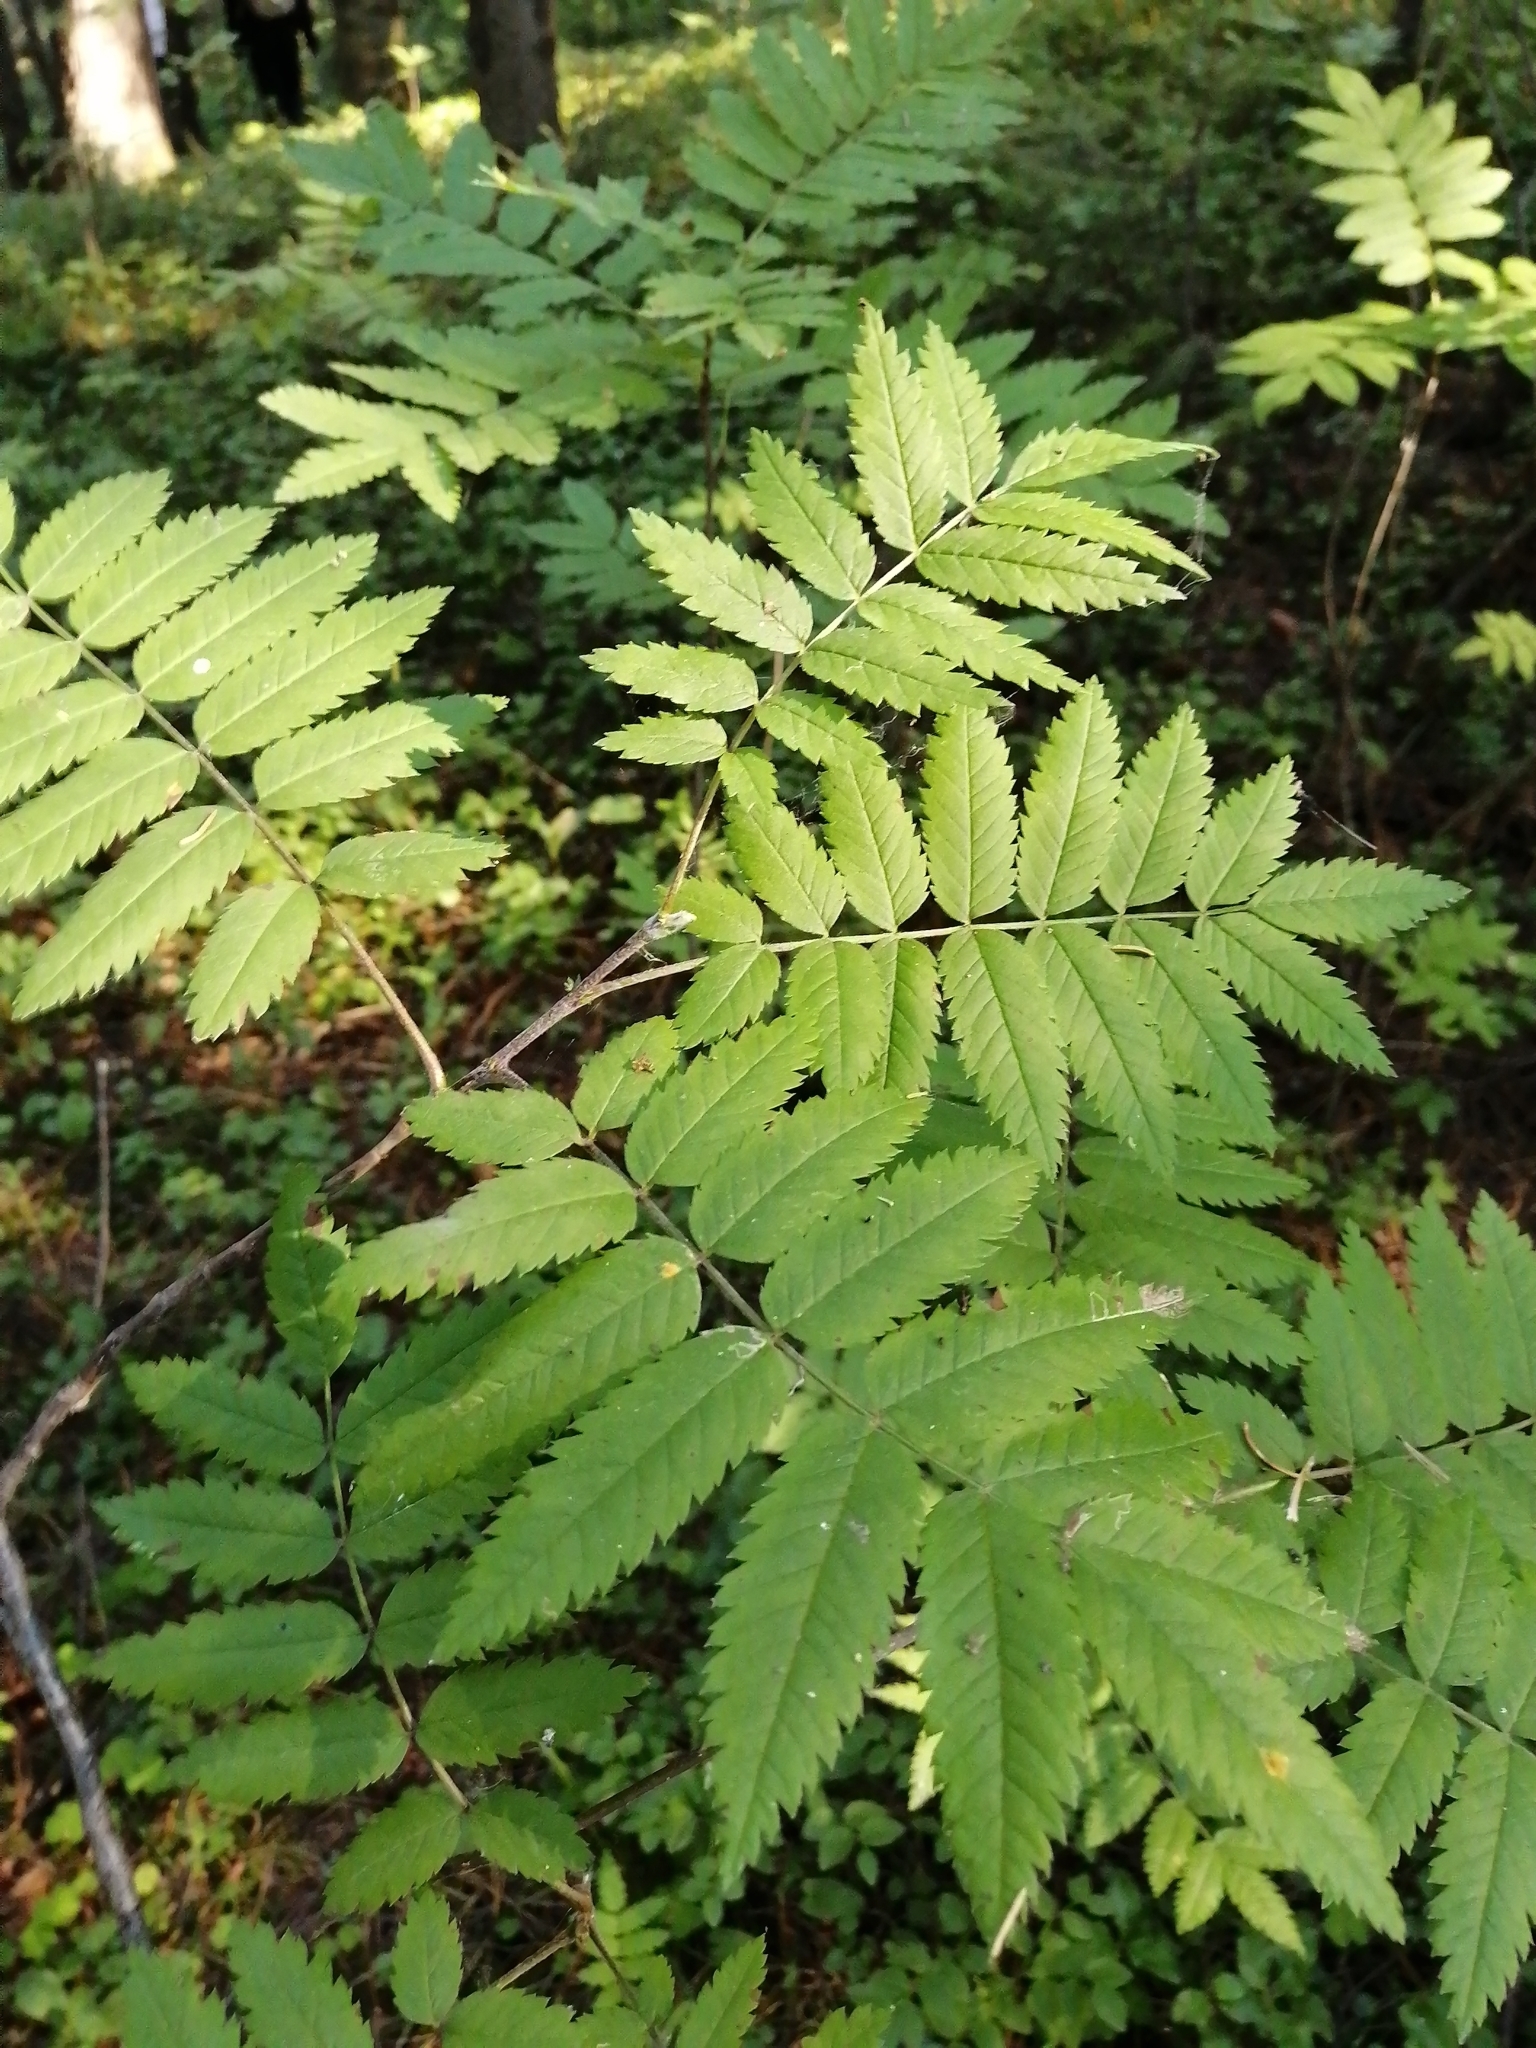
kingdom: Plantae
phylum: Tracheophyta
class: Magnoliopsida
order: Rosales
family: Rosaceae
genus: Sorbus
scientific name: Sorbus aucuparia
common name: Rowan
